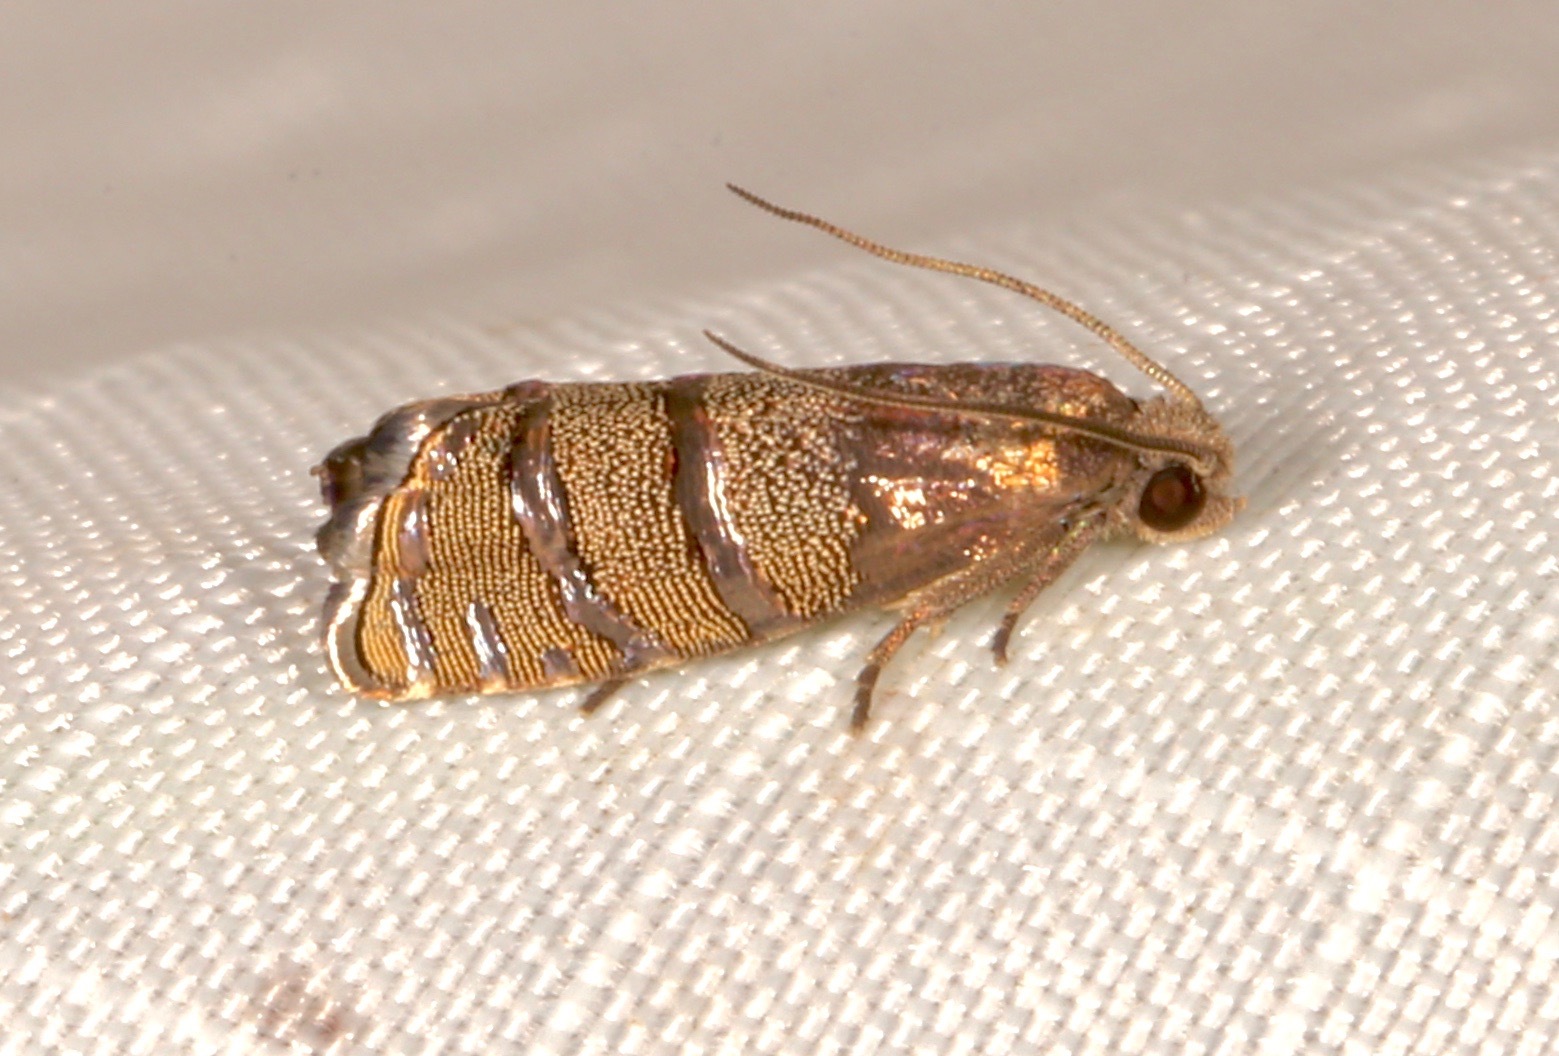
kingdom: Animalia
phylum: Arthropoda
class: Insecta
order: Lepidoptera
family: Tortricidae
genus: Cydia
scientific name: Cydia toreuta
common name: Eastern pine seedworm moth
